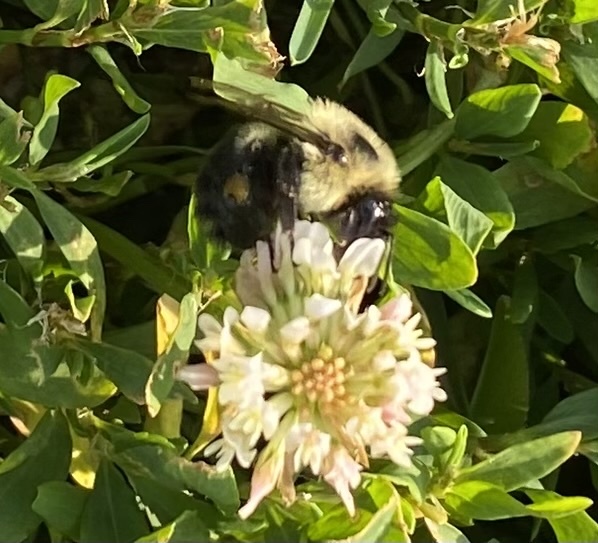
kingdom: Animalia
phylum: Arthropoda
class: Insecta
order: Hymenoptera
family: Apidae
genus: Bombus
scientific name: Bombus impatiens
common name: Common eastern bumble bee
